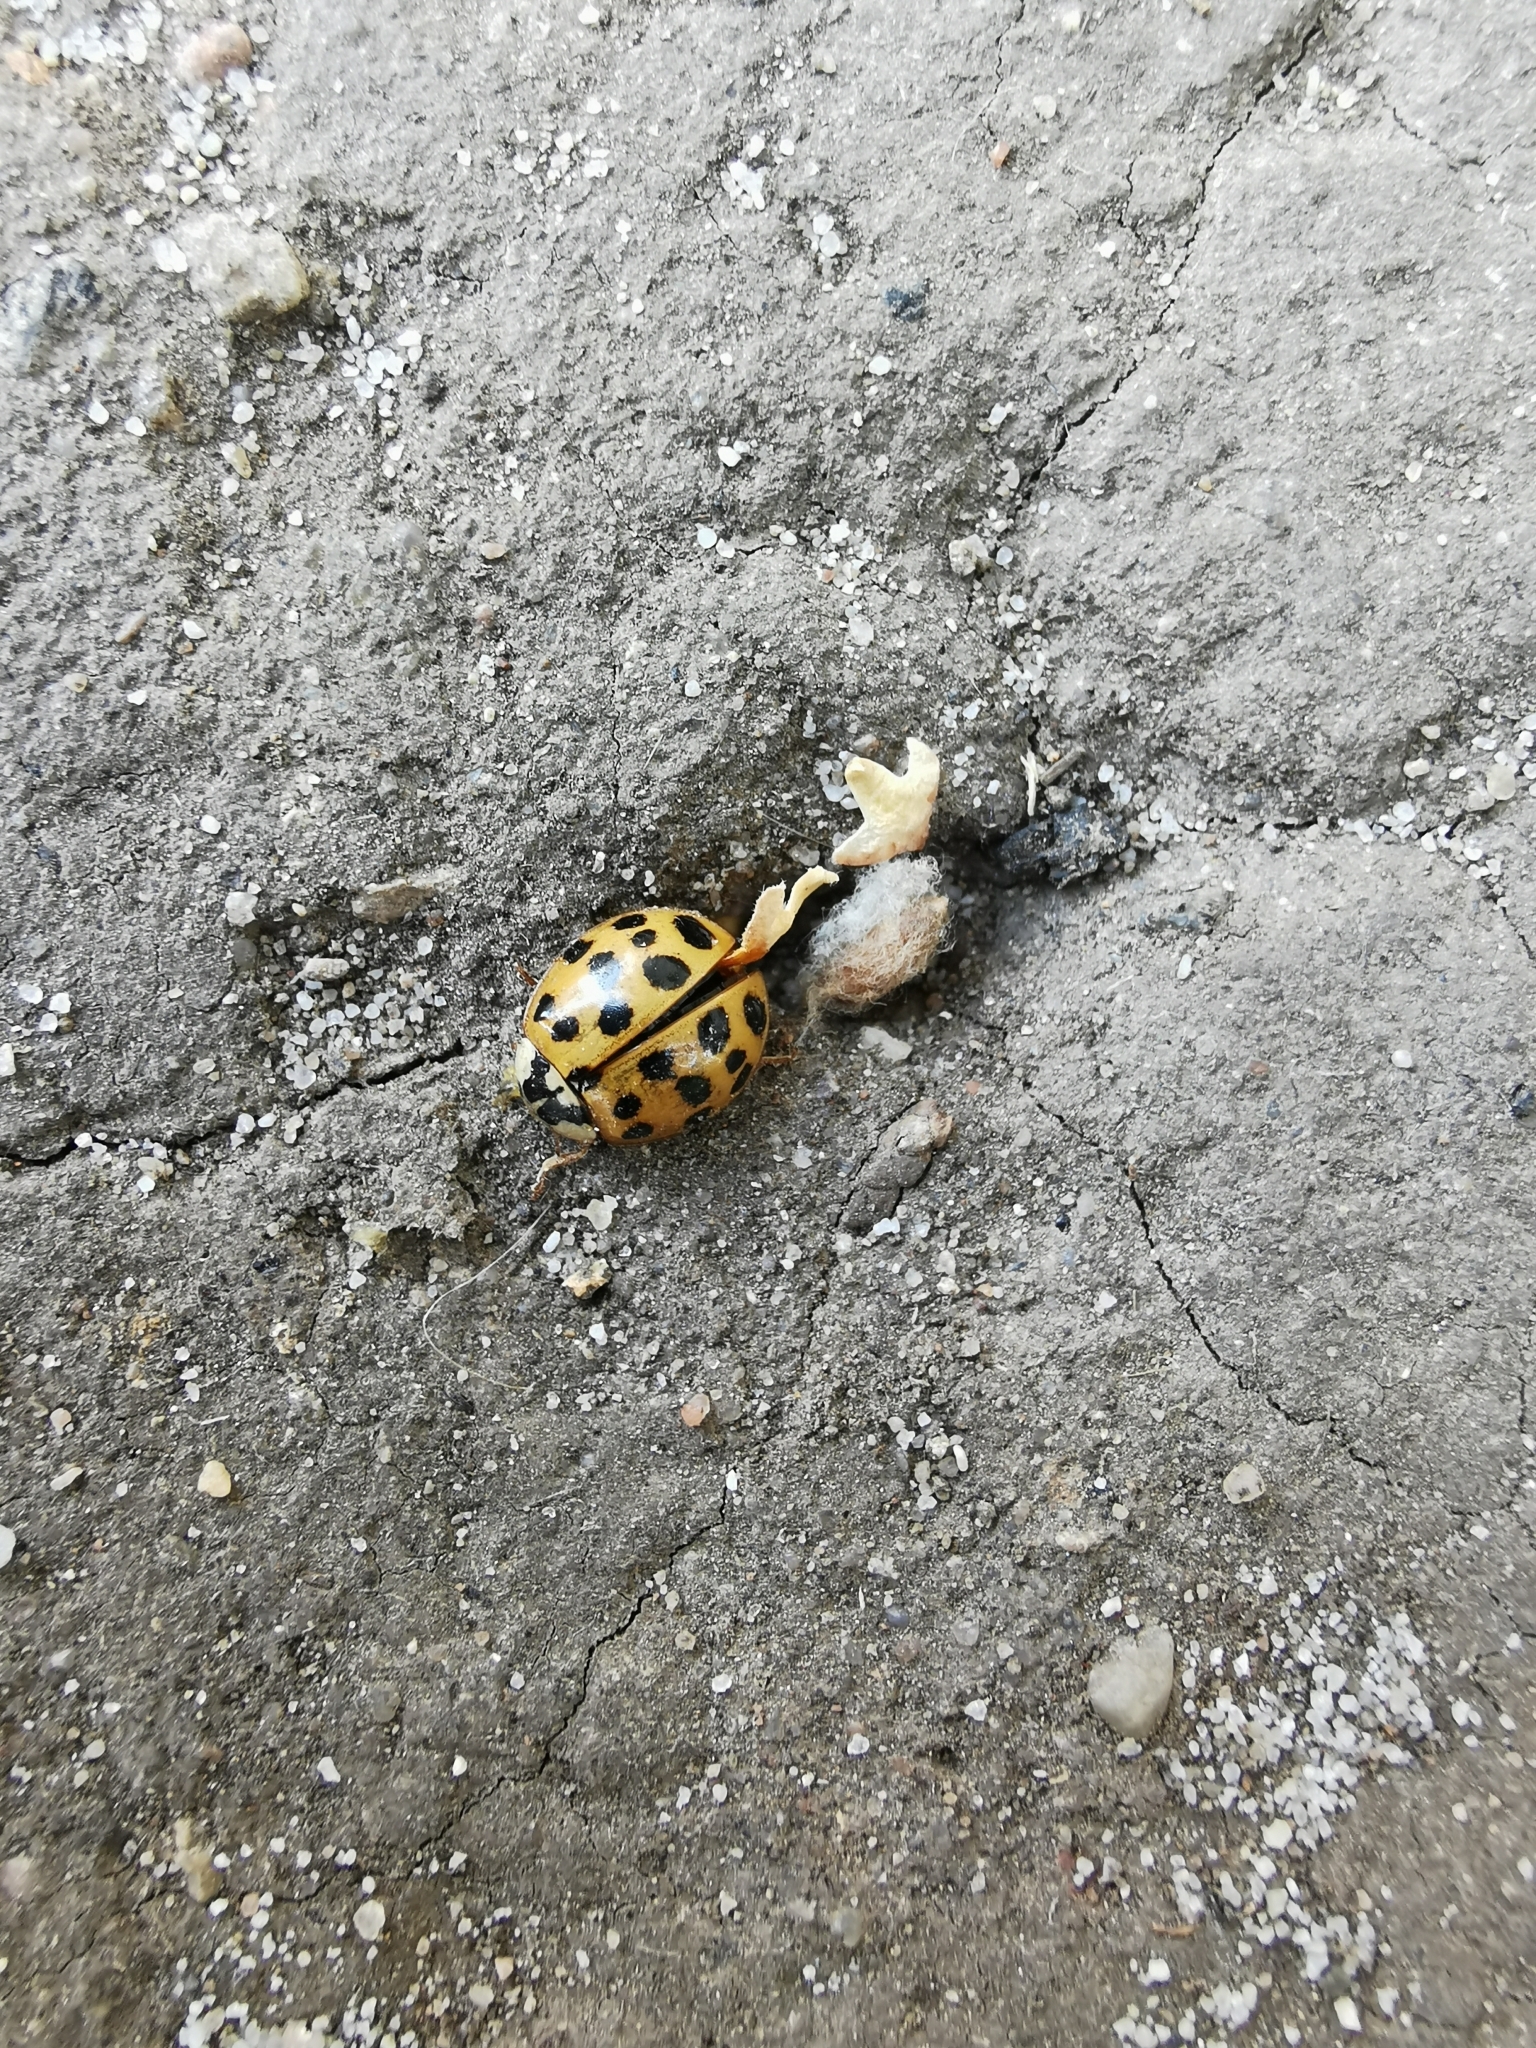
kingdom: Animalia
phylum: Arthropoda
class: Insecta
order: Coleoptera
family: Coccinellidae
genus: Harmonia
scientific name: Harmonia axyridis
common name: Harlequin ladybird
